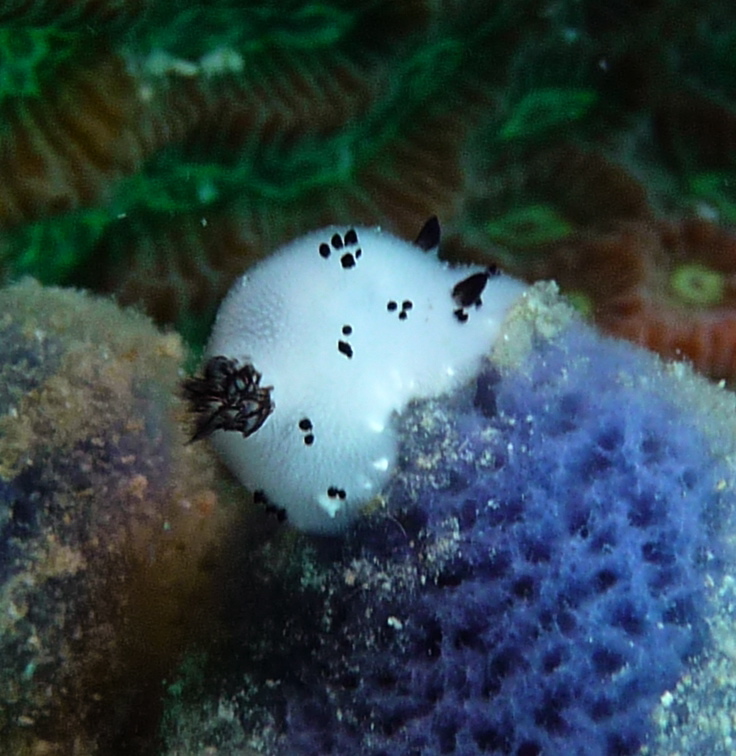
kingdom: Animalia
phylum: Mollusca
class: Gastropoda
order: Nudibranchia
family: Discodorididae
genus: Jorunna
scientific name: Jorunna funebris
